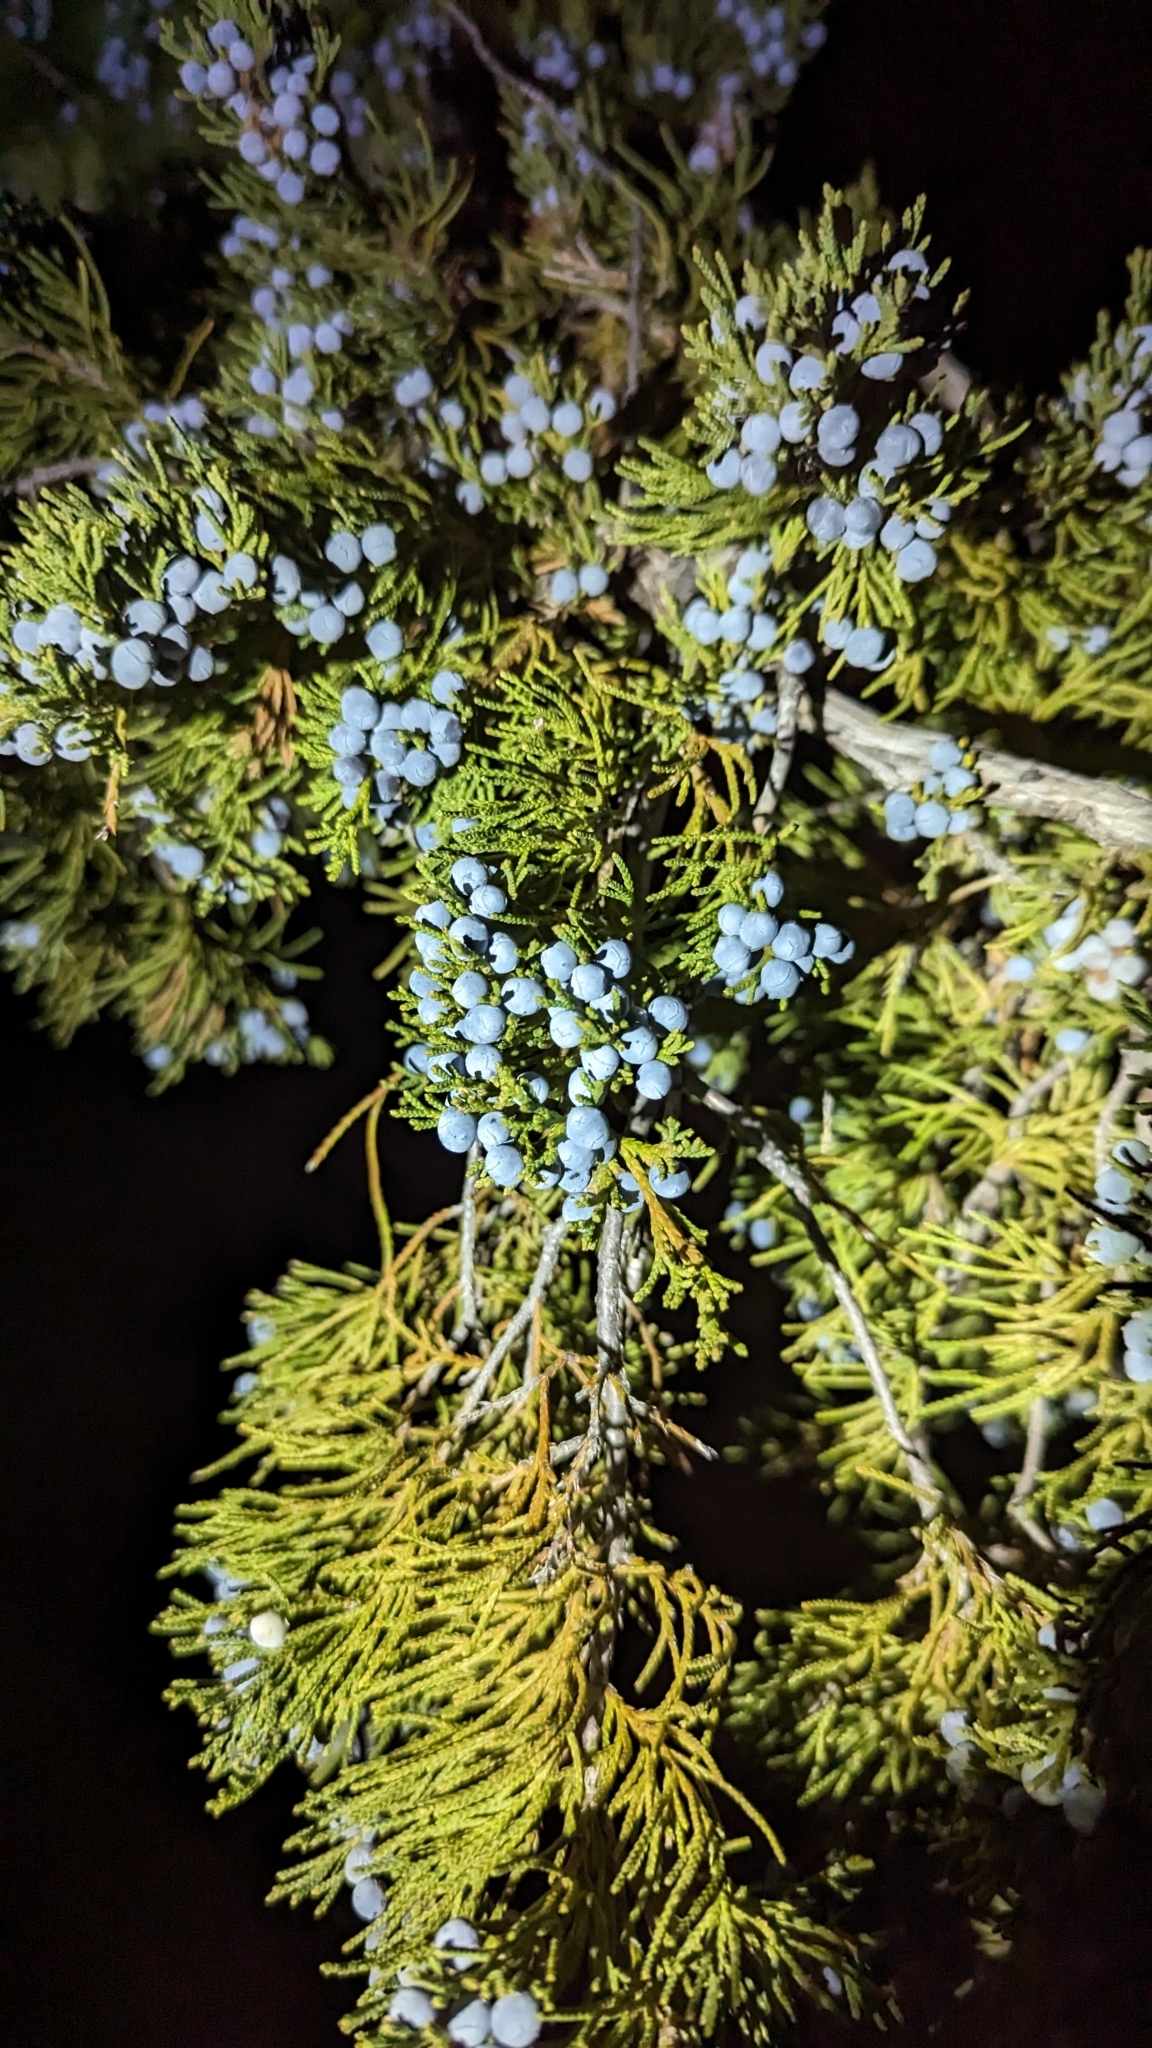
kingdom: Plantae
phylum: Tracheophyta
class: Pinopsida
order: Pinales
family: Cupressaceae
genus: Juniperus
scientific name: Juniperus virginiana
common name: Red juniper
